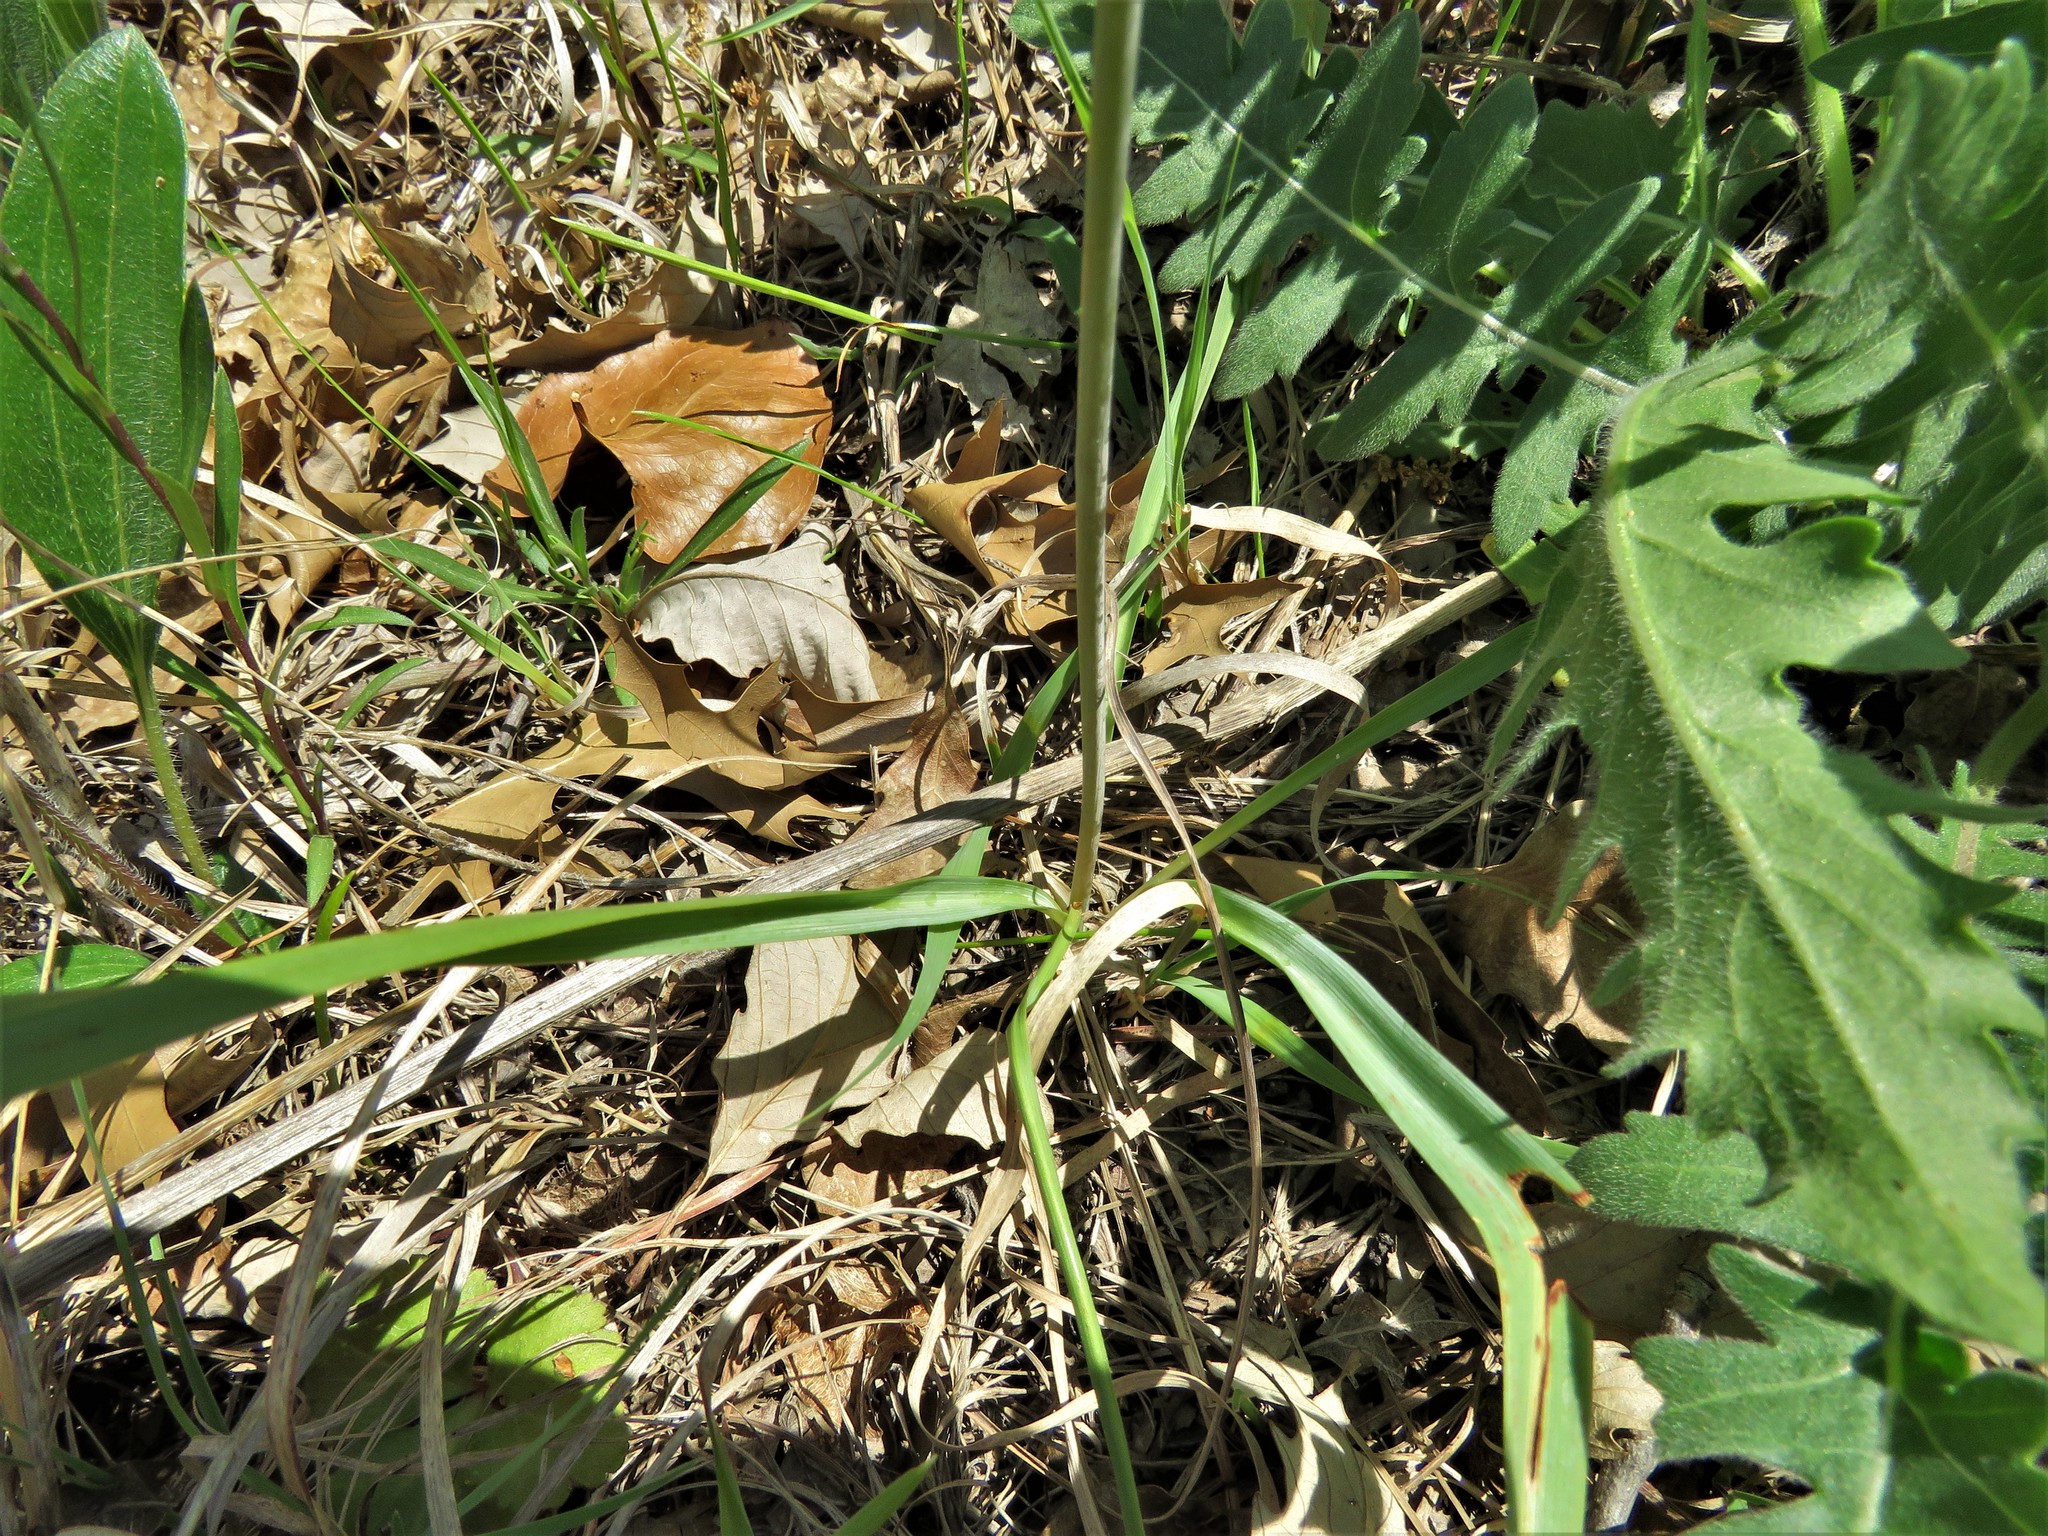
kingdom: Plantae
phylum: Tracheophyta
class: Liliopsida
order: Asparagales
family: Asparagaceae
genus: Camassia
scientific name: Camassia scilloides
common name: Wild hyacinth
